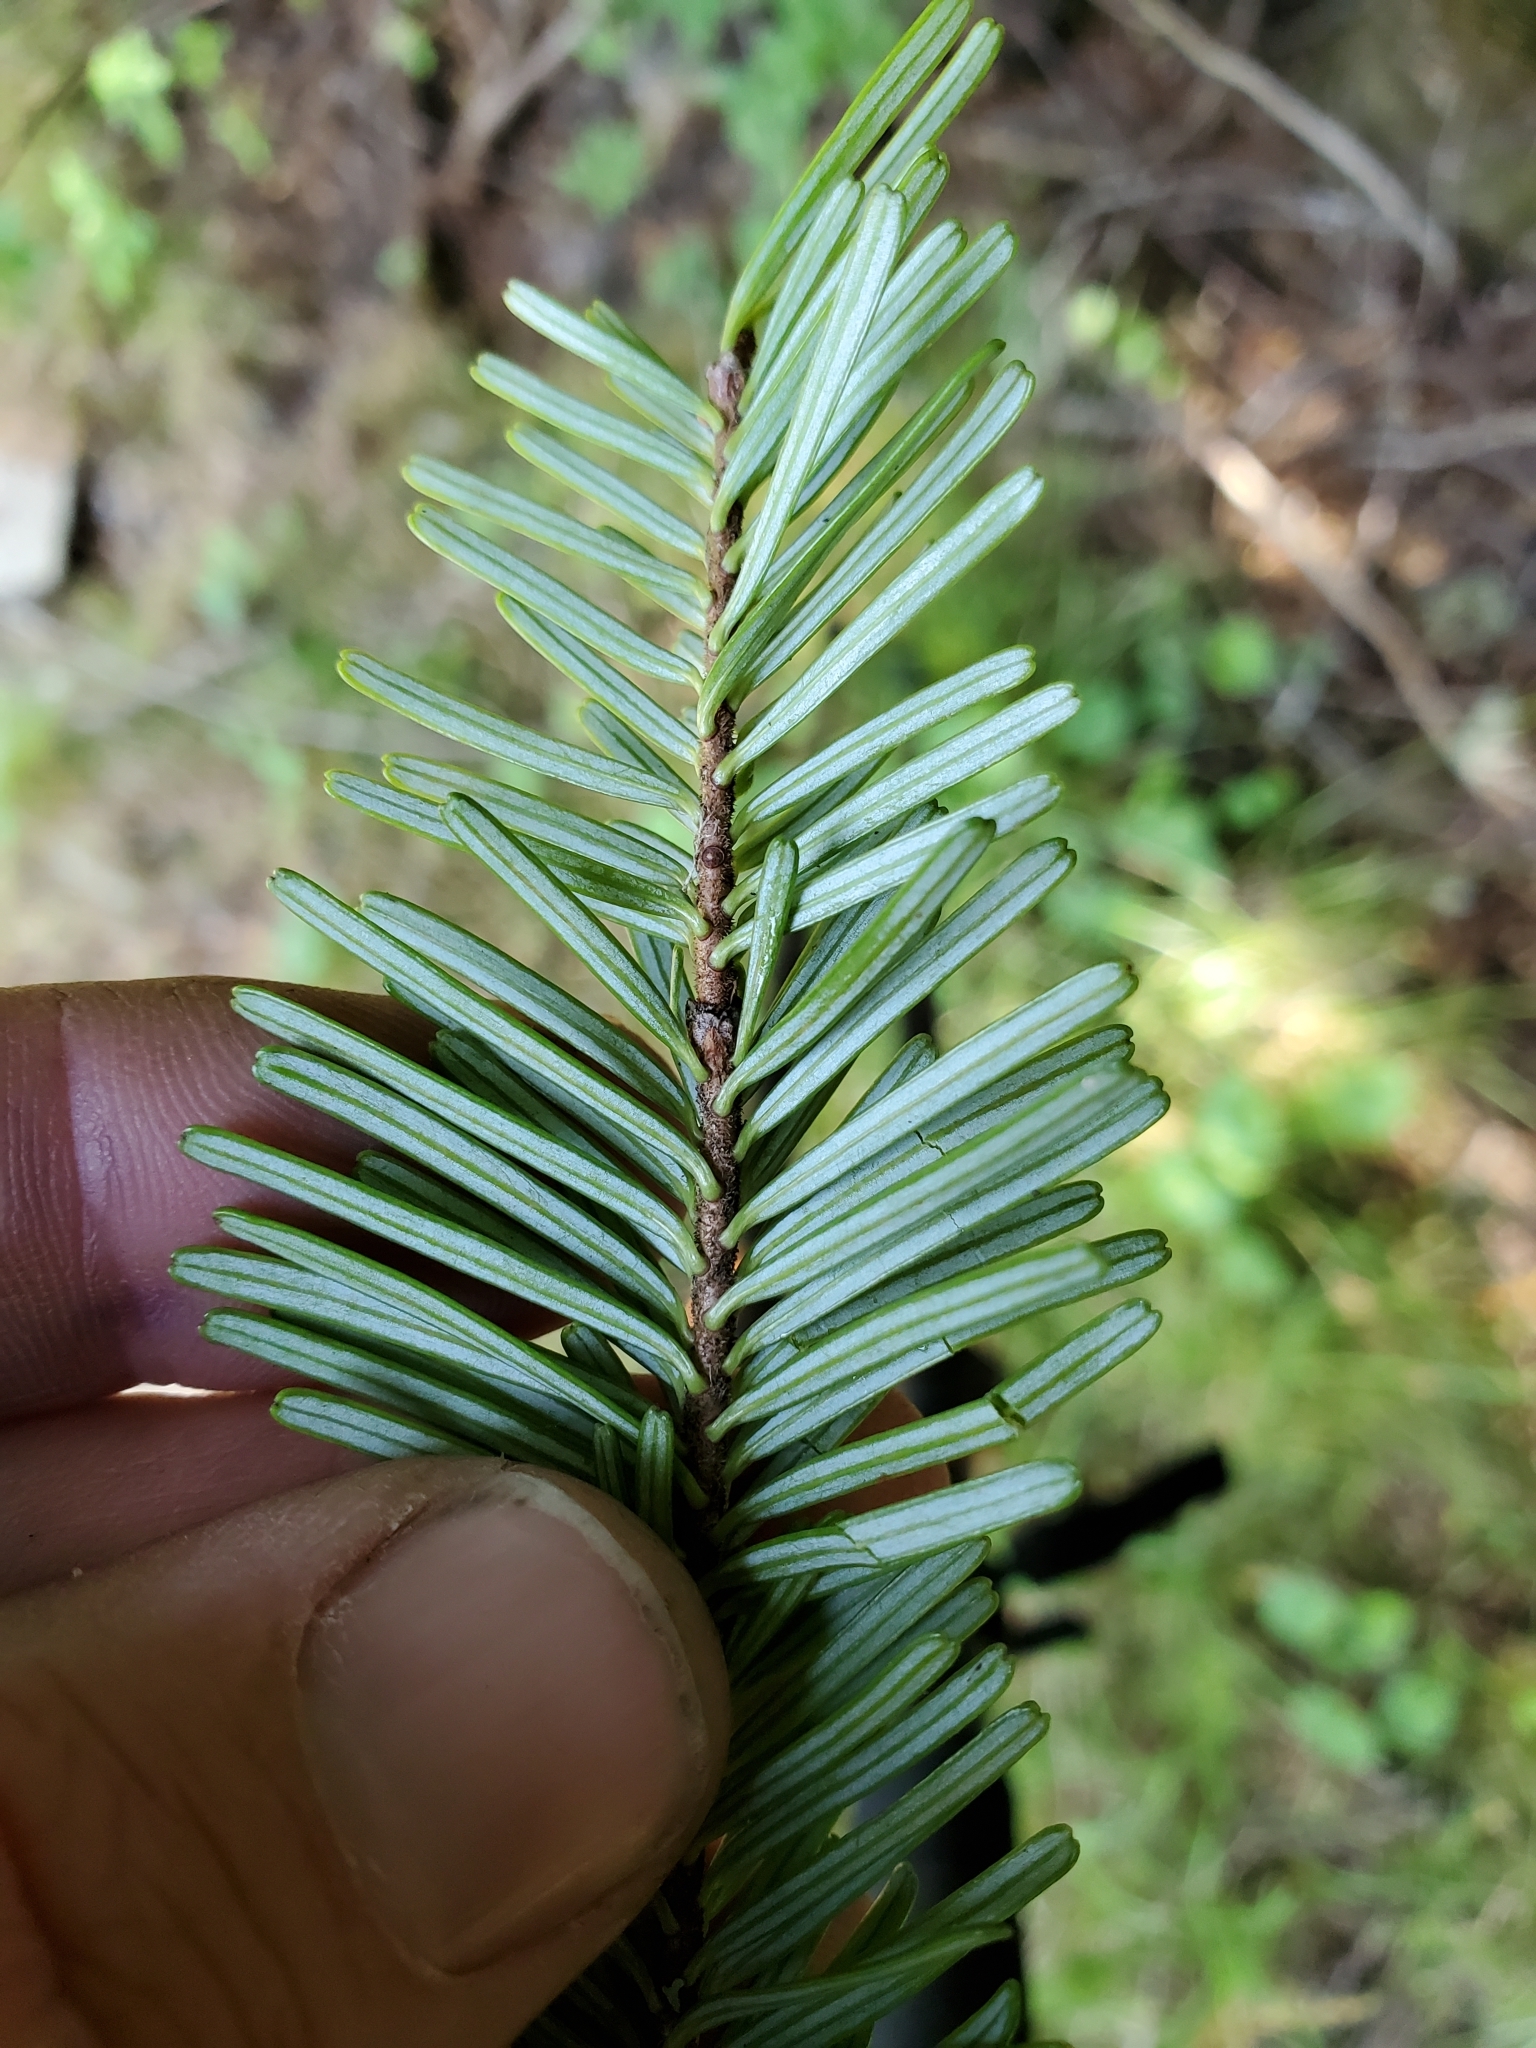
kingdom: Plantae
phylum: Tracheophyta
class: Pinopsida
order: Pinales
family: Pinaceae
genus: Abies
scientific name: Abies amabilis
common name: Pacific silver fir
